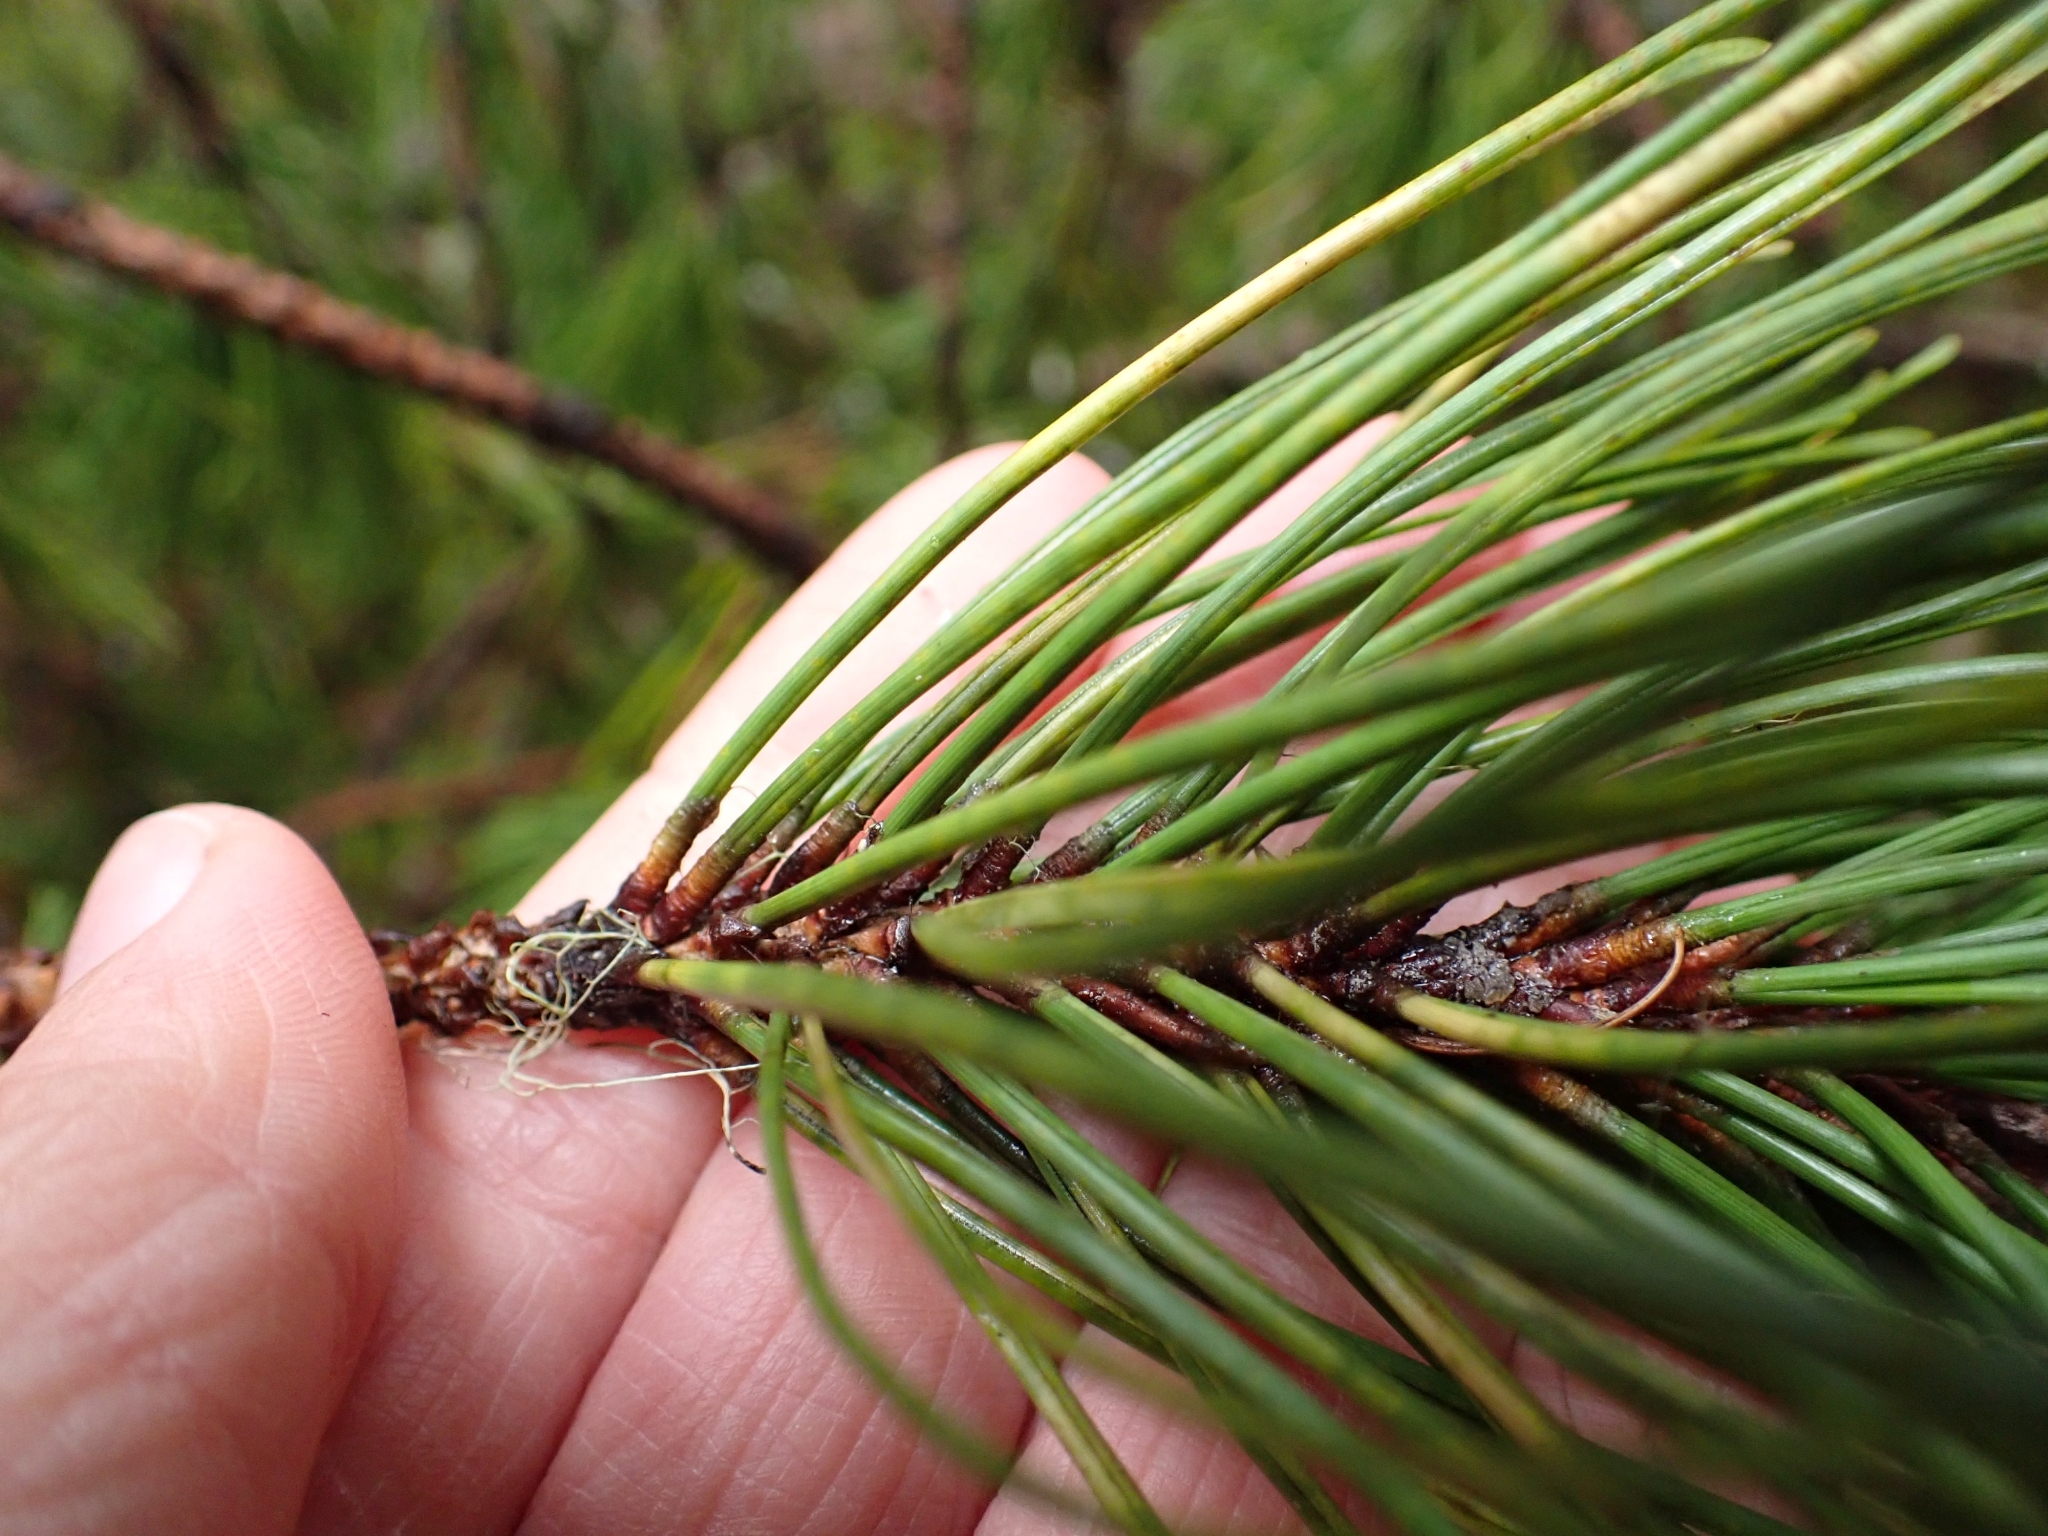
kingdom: Plantae
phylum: Tracheophyta
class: Pinopsida
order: Pinales
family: Pinaceae
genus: Pinus
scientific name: Pinus contorta
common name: Lodgepole pine
